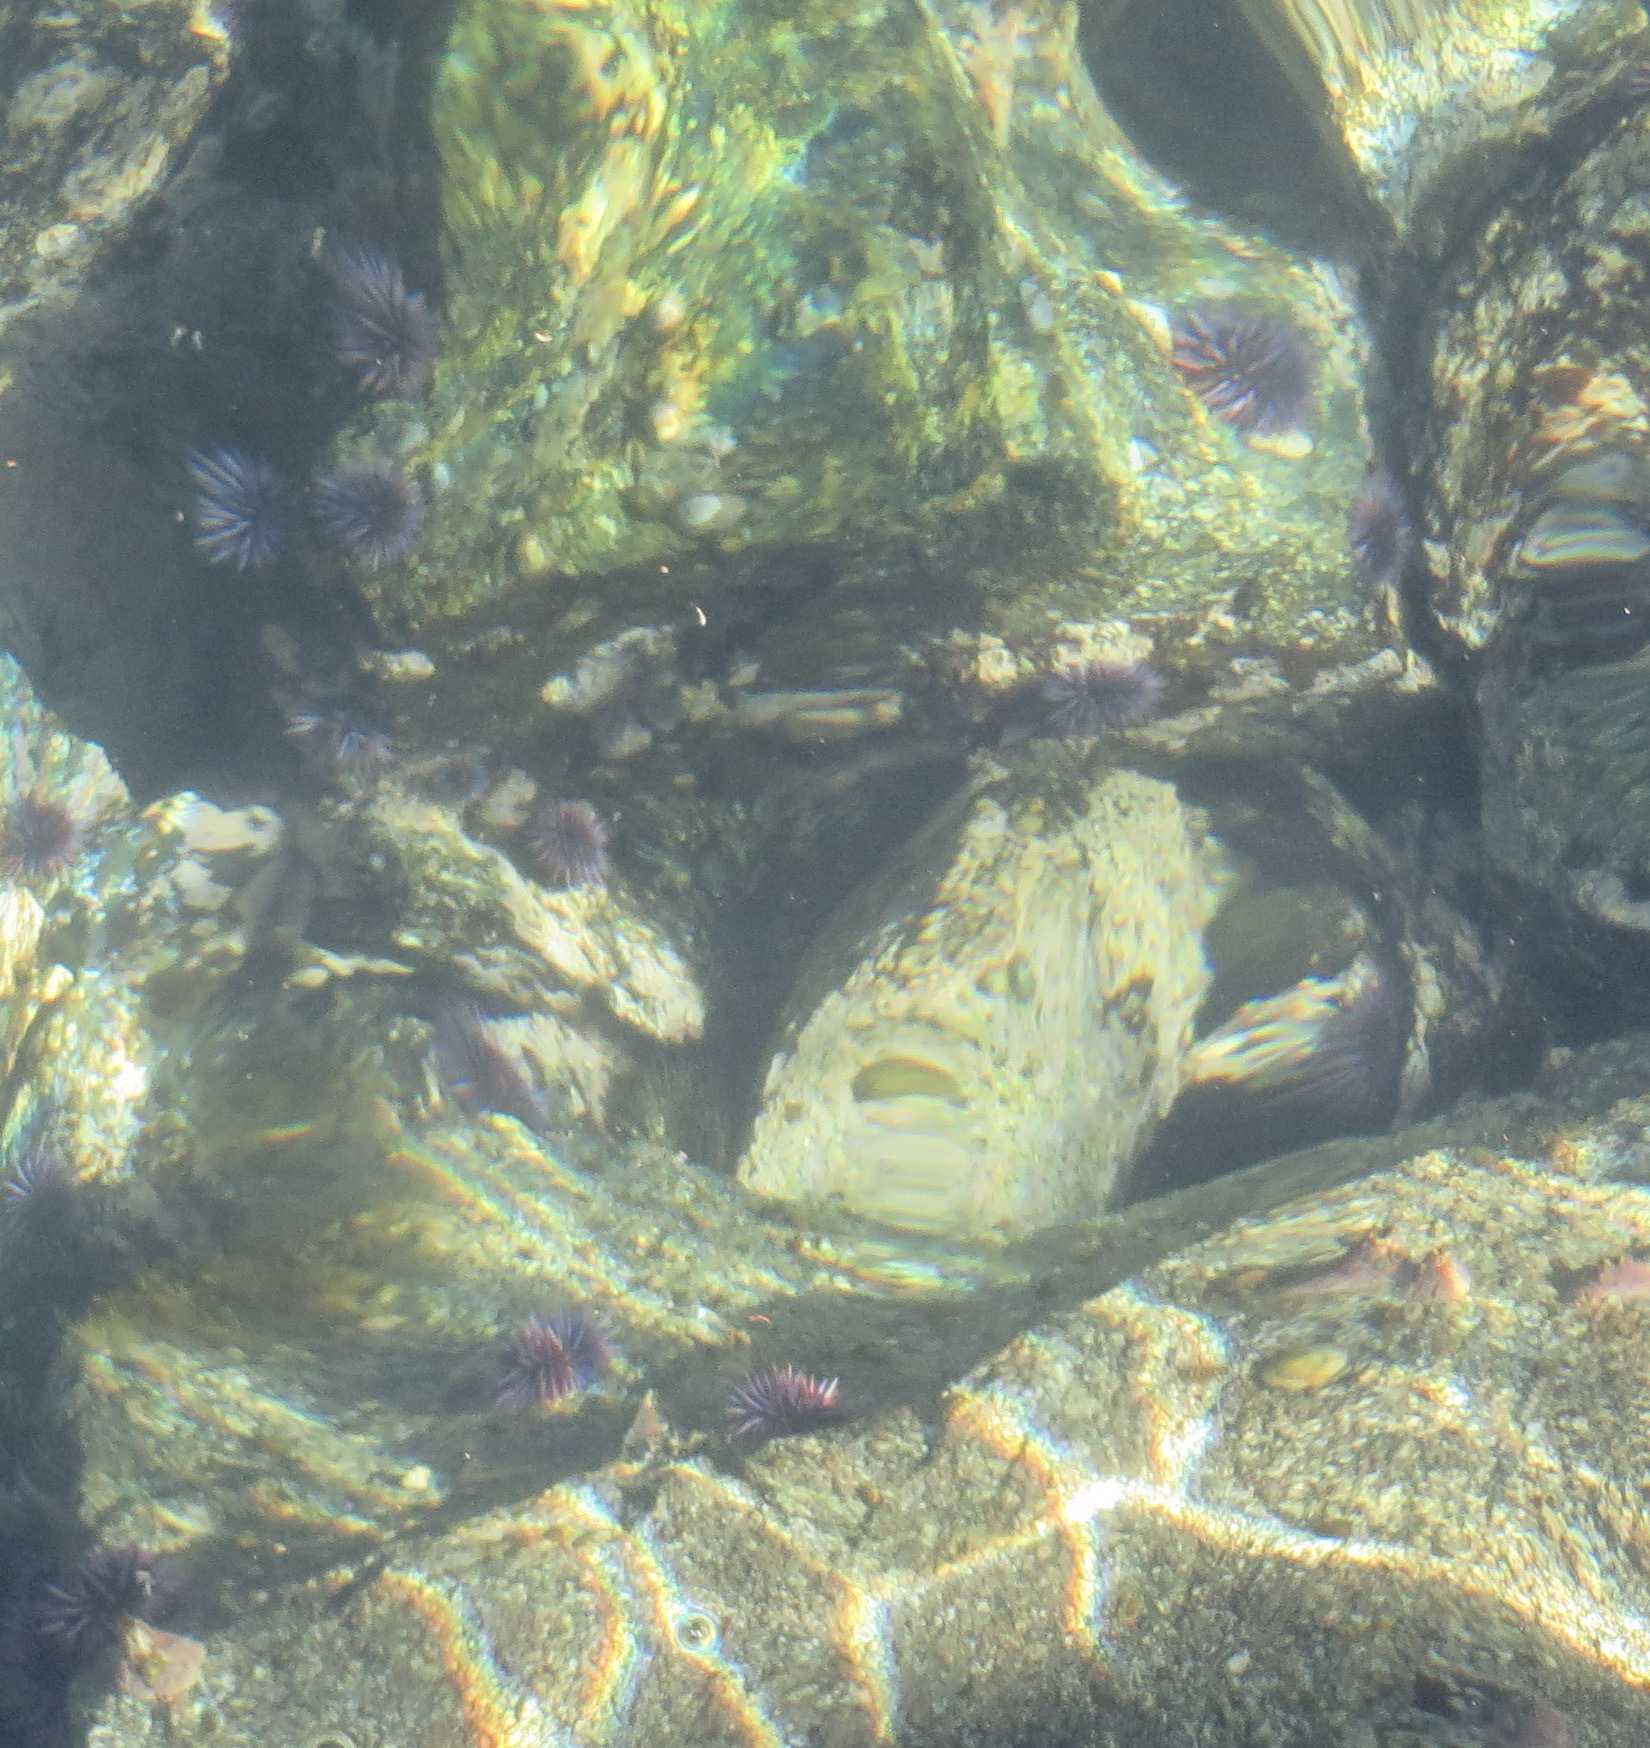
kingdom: Animalia
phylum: Echinodermata
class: Echinoidea
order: Camarodonta
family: Strongylocentrotidae
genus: Strongylocentrotus
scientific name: Strongylocentrotus purpuratus
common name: Purple sea urchin
